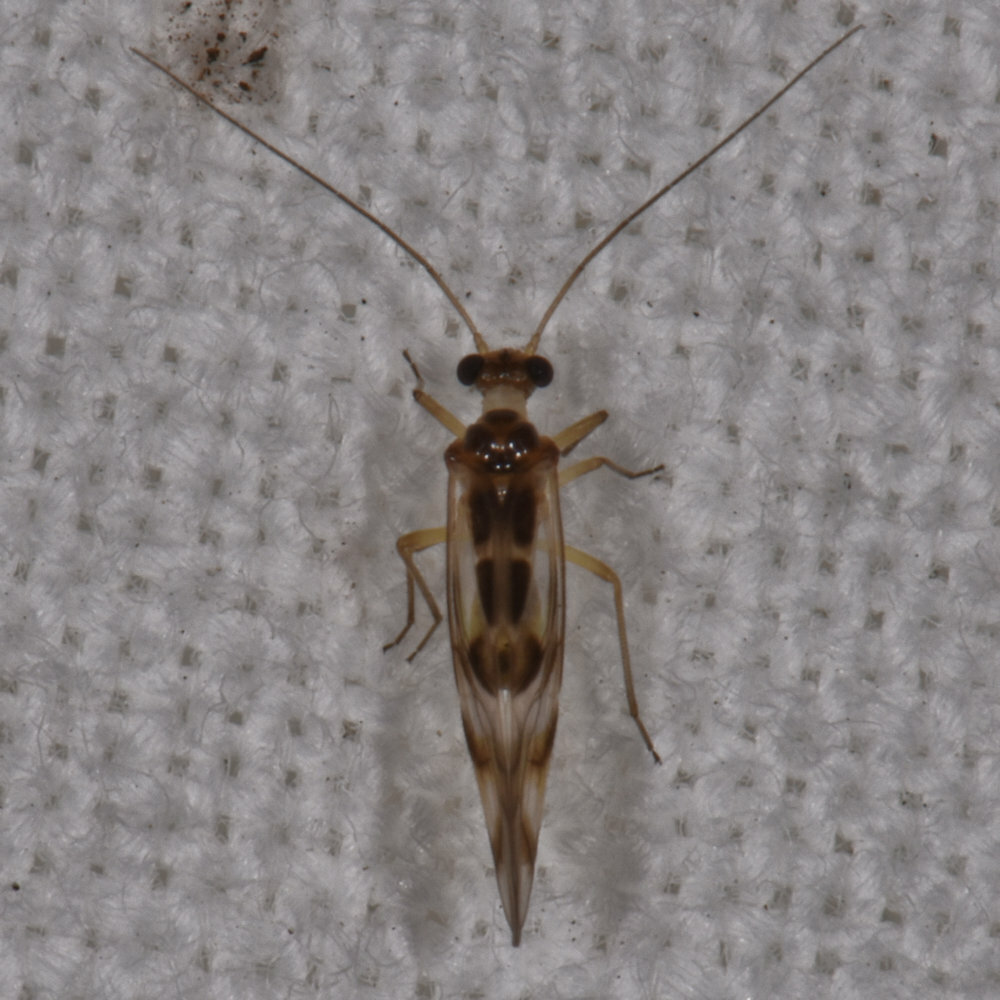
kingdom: Animalia
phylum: Arthropoda
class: Insecta
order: Psocodea
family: Stenopsocidae
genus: Graphopsocus
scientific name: Graphopsocus cruciatus
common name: Lizard bark louse
